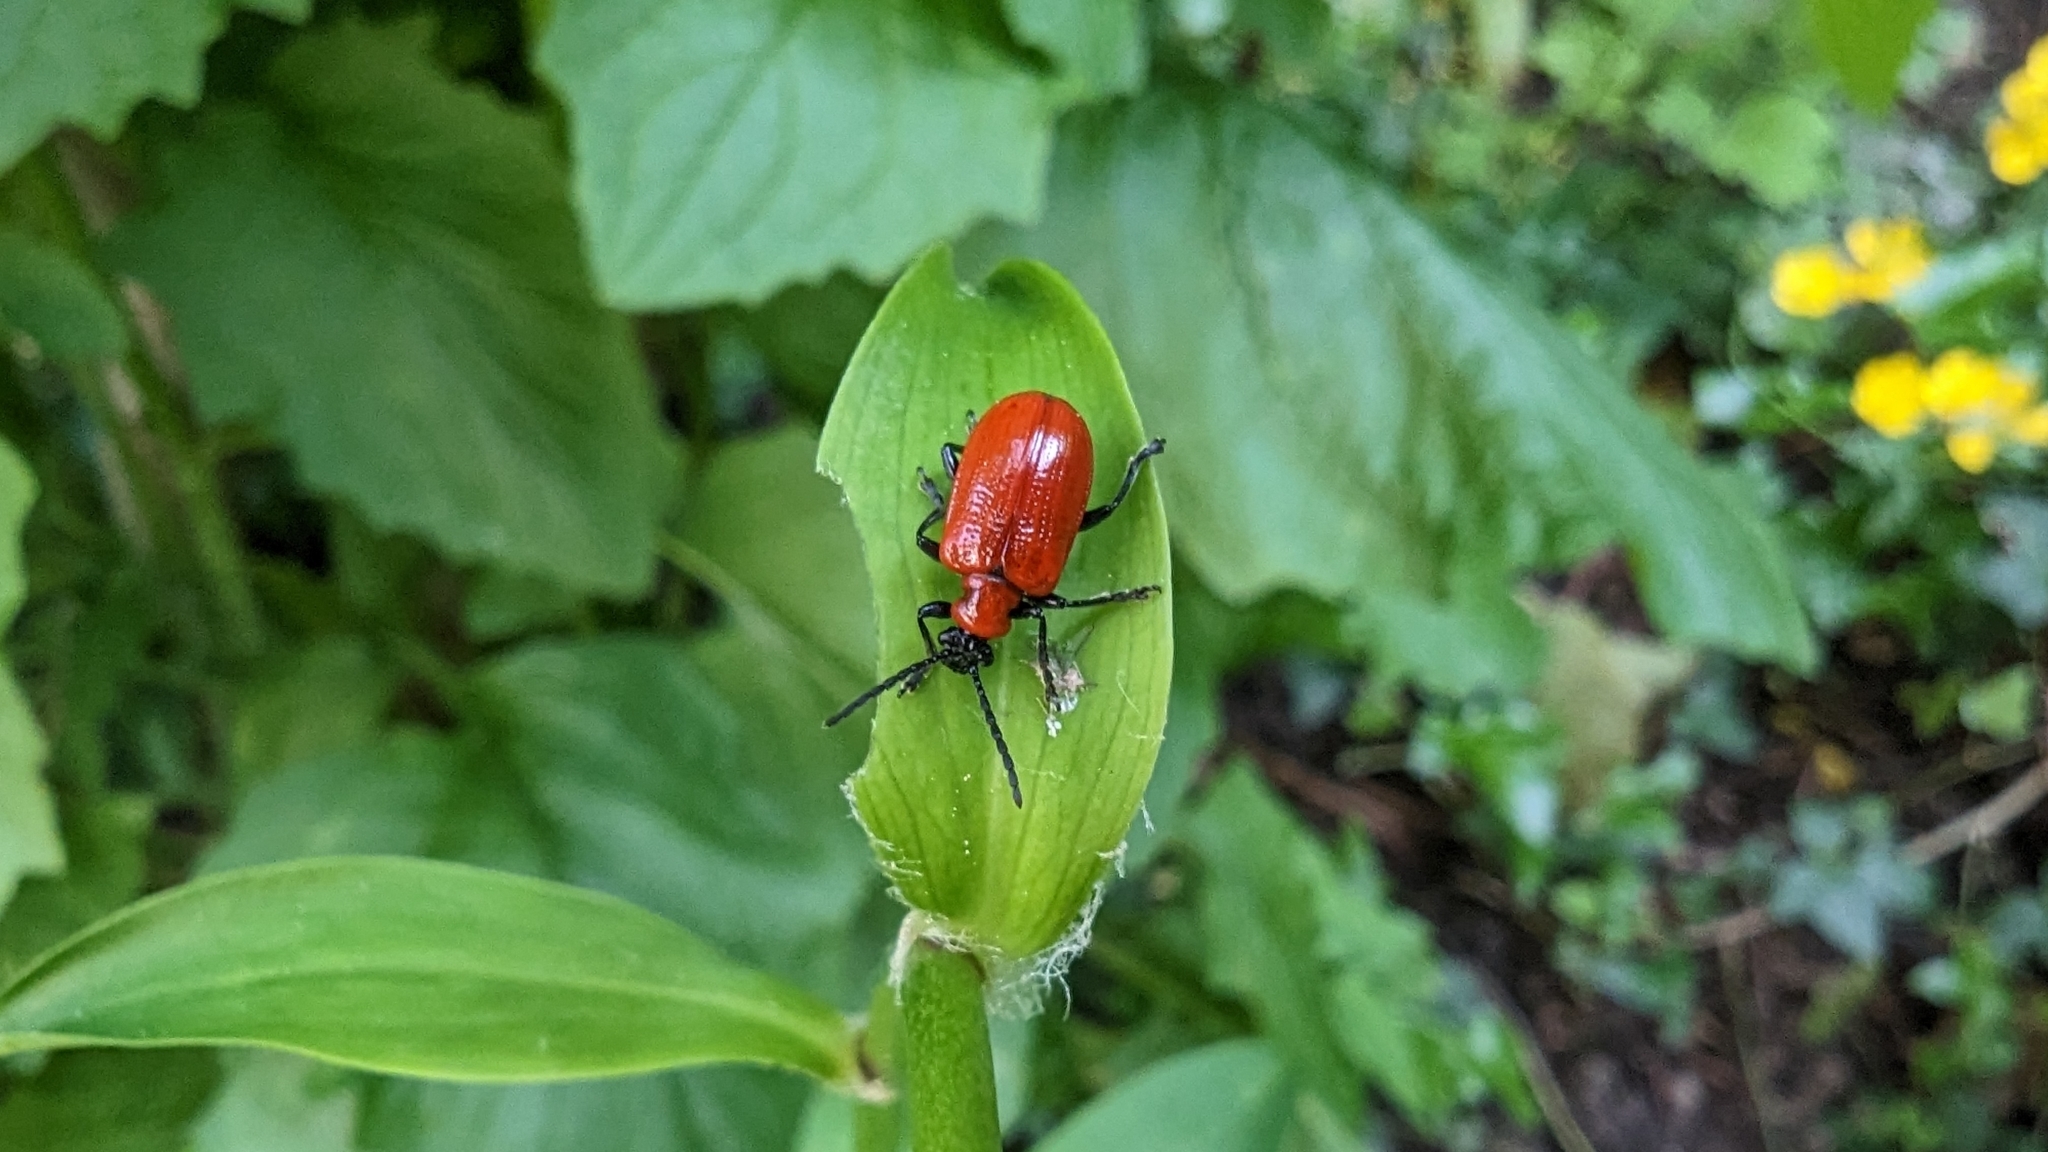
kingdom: Animalia
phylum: Arthropoda
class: Insecta
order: Coleoptera
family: Chrysomelidae
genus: Lilioceris
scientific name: Lilioceris lilii
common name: Lily beetle
